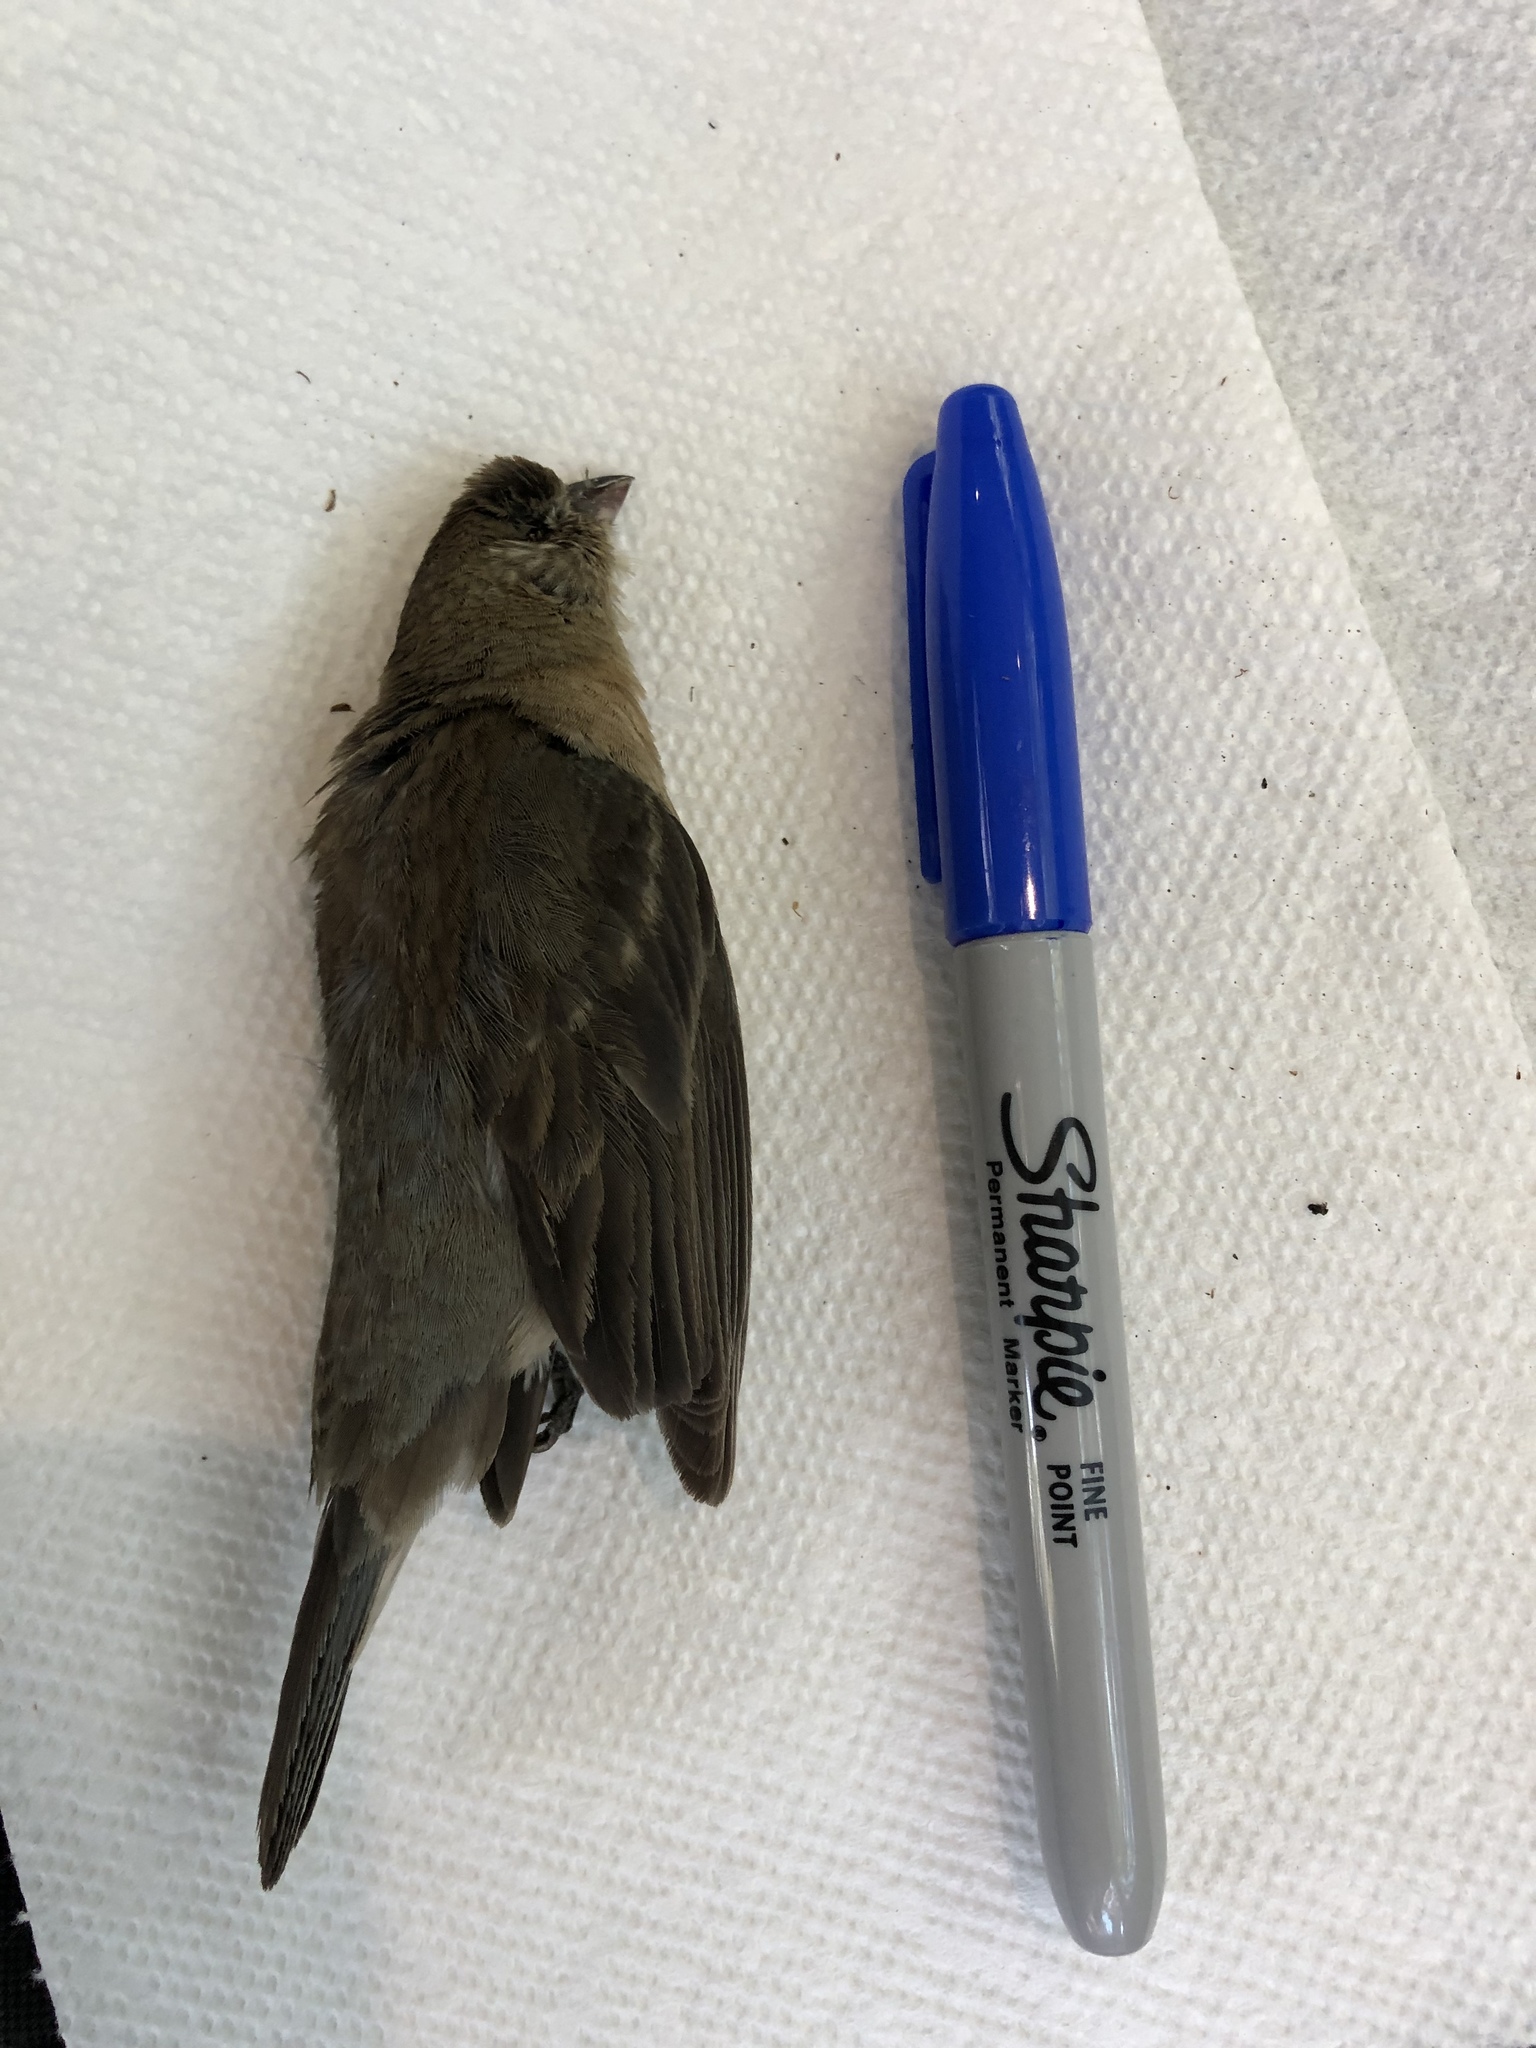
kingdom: Animalia
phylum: Chordata
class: Aves
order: Passeriformes
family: Cardinalidae
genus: Passerina
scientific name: Passerina amoena
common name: Lazuli bunting
